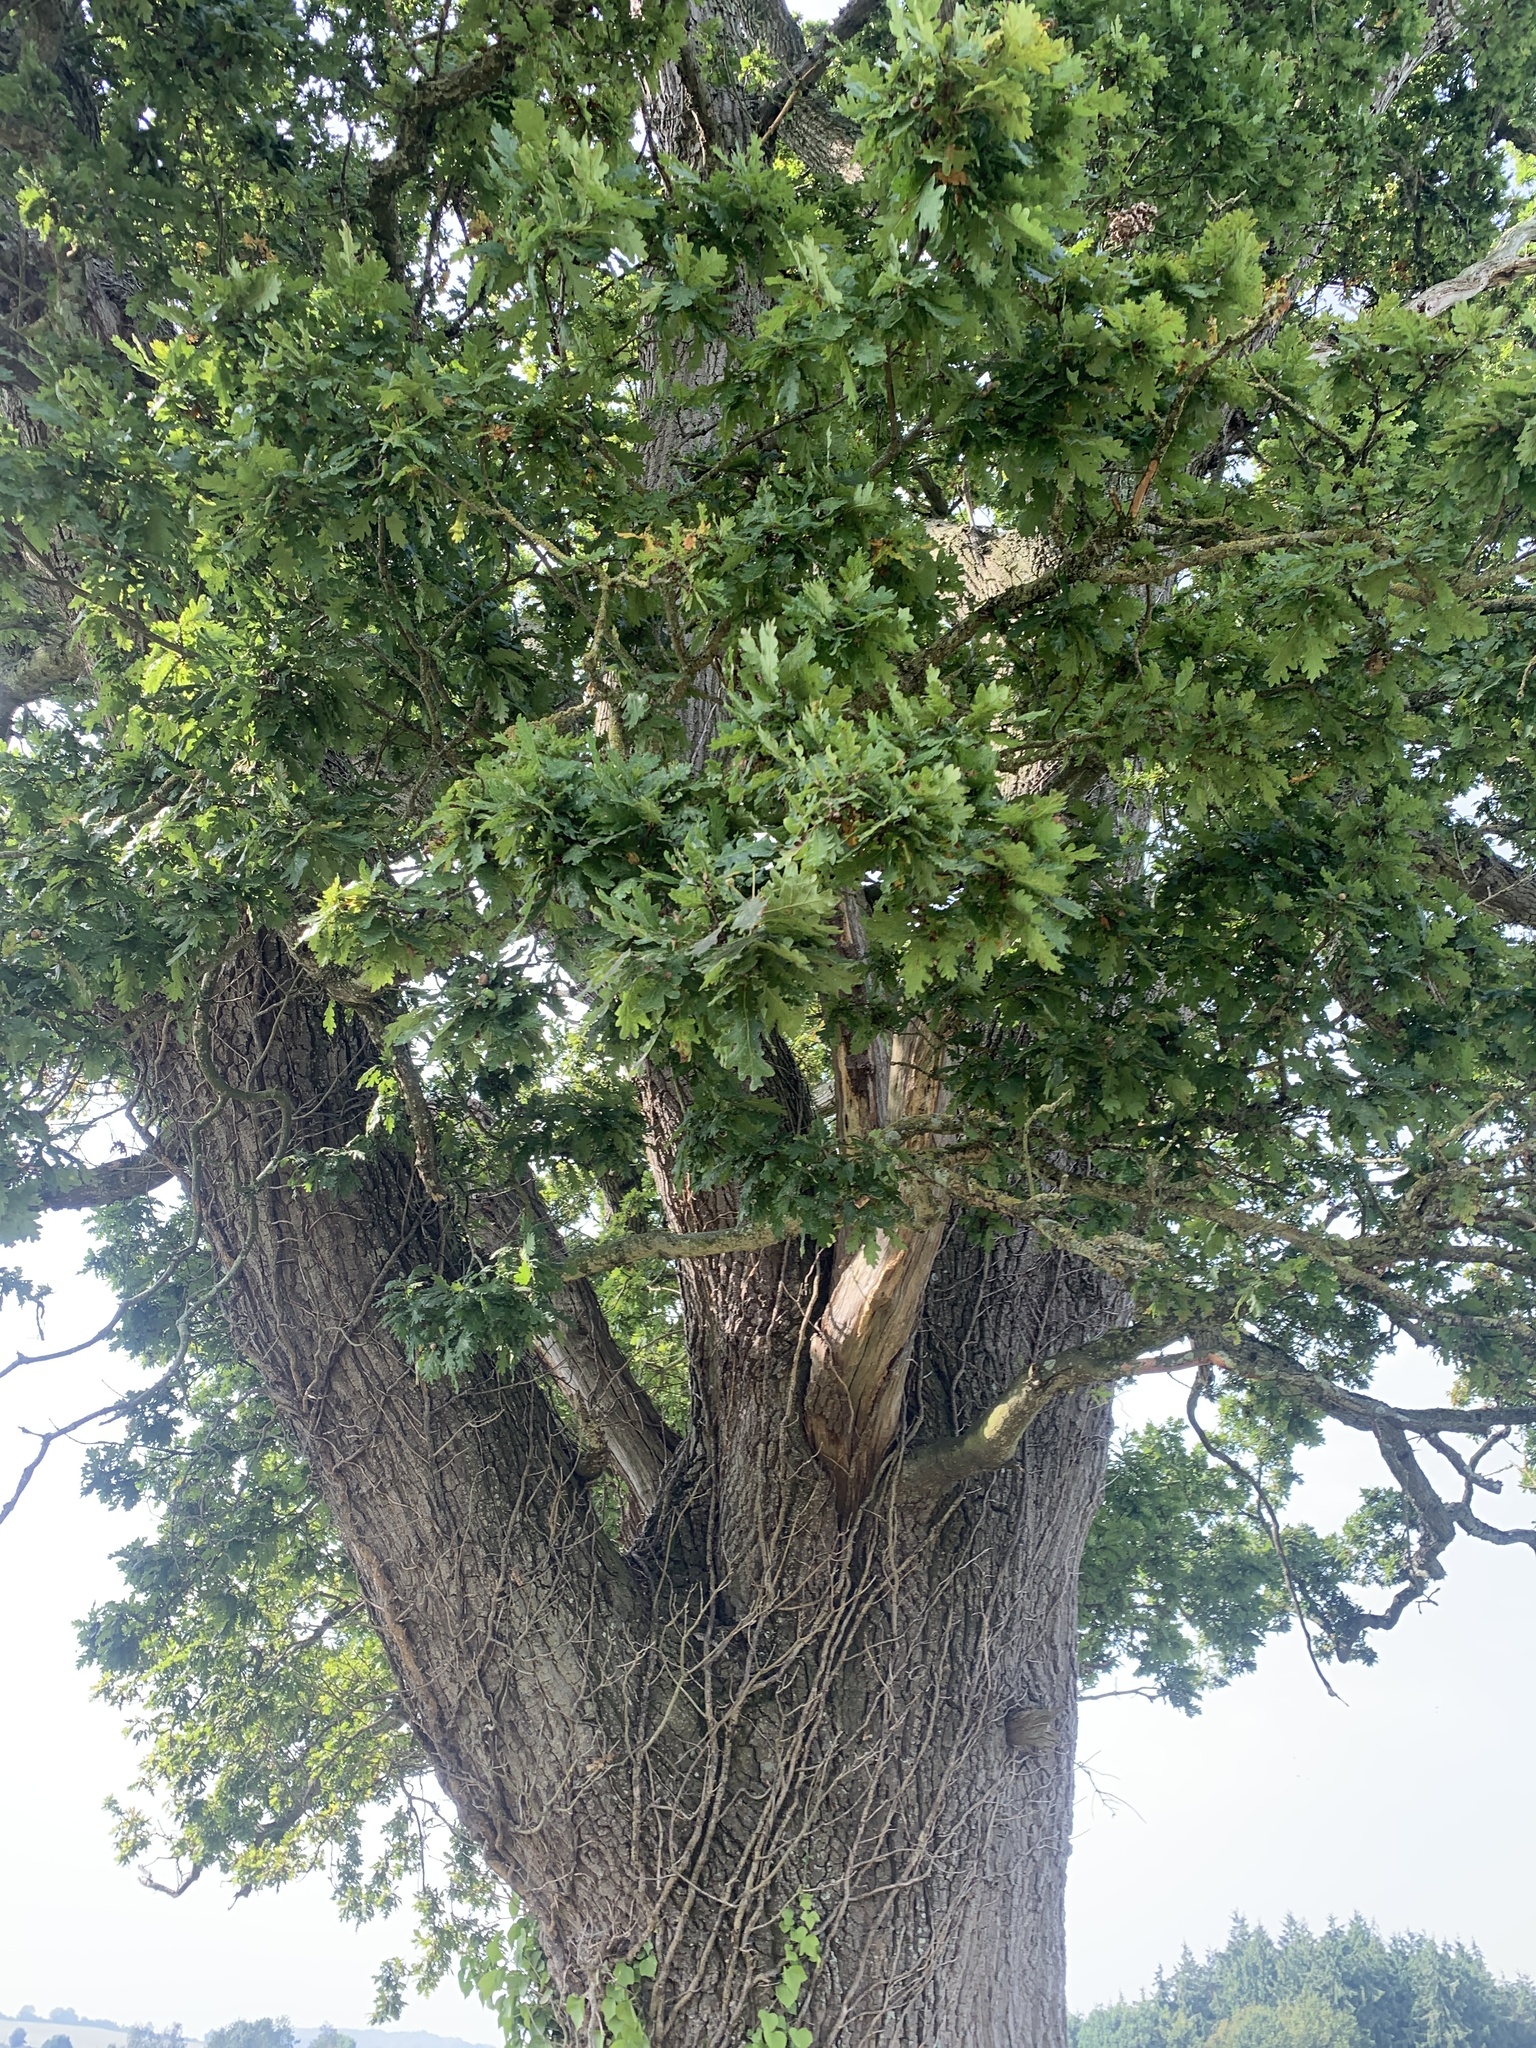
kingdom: Plantae
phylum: Tracheophyta
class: Magnoliopsida
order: Fagales
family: Fagaceae
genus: Quercus
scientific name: Quercus robur
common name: Pedunculate oak
